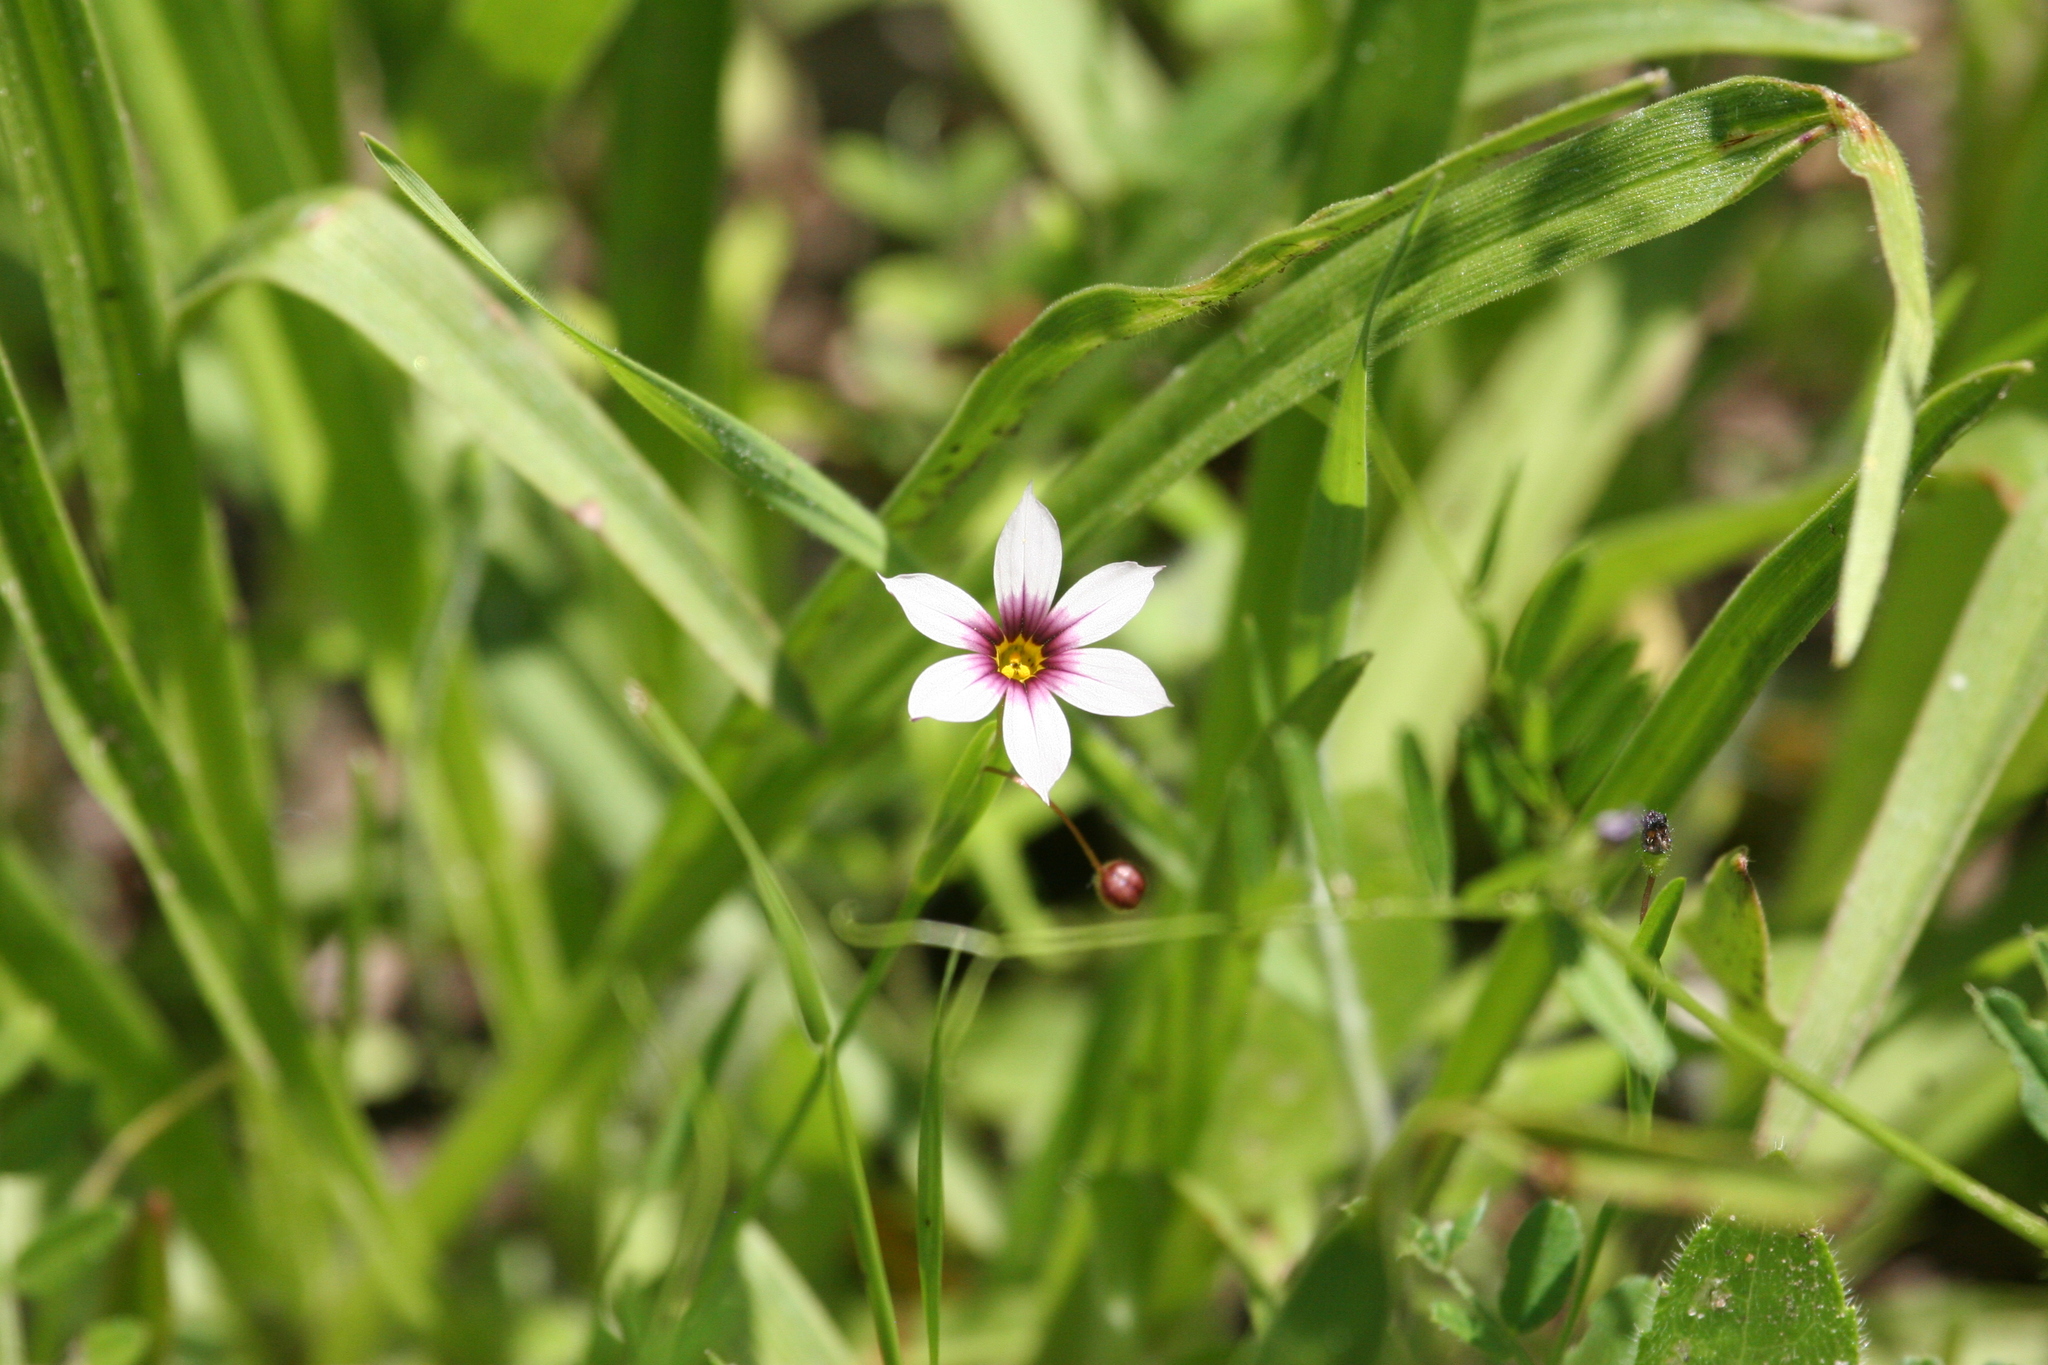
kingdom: Plantae
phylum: Tracheophyta
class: Liliopsida
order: Asparagales
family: Iridaceae
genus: Sisyrinchium
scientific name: Sisyrinchium micranthum
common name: Bermuda pigroot
